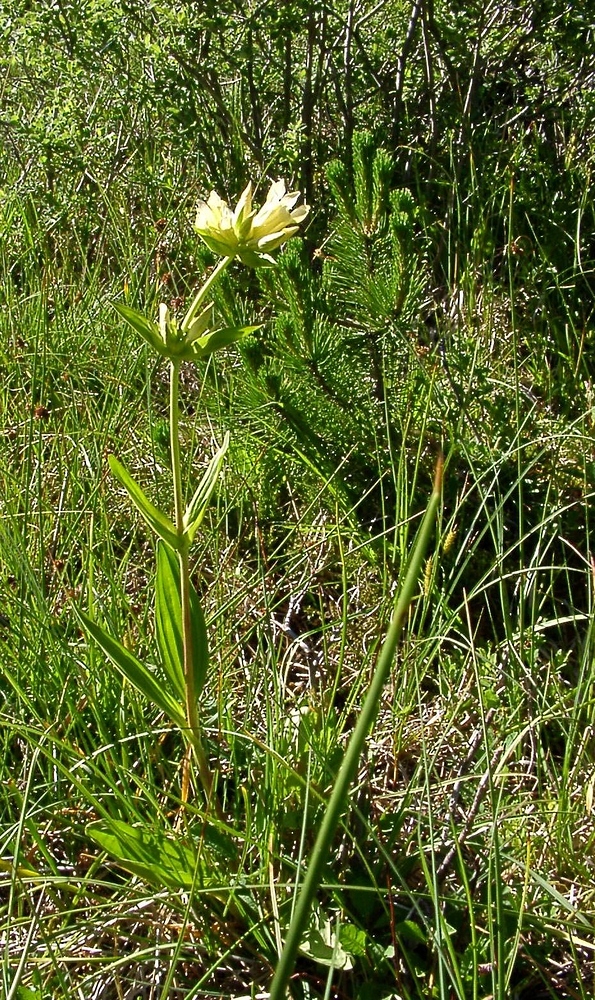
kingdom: Plantae
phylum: Tracheophyta
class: Magnoliopsida
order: Gentianales
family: Gentianaceae
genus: Gentiana
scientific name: Gentiana burseri
